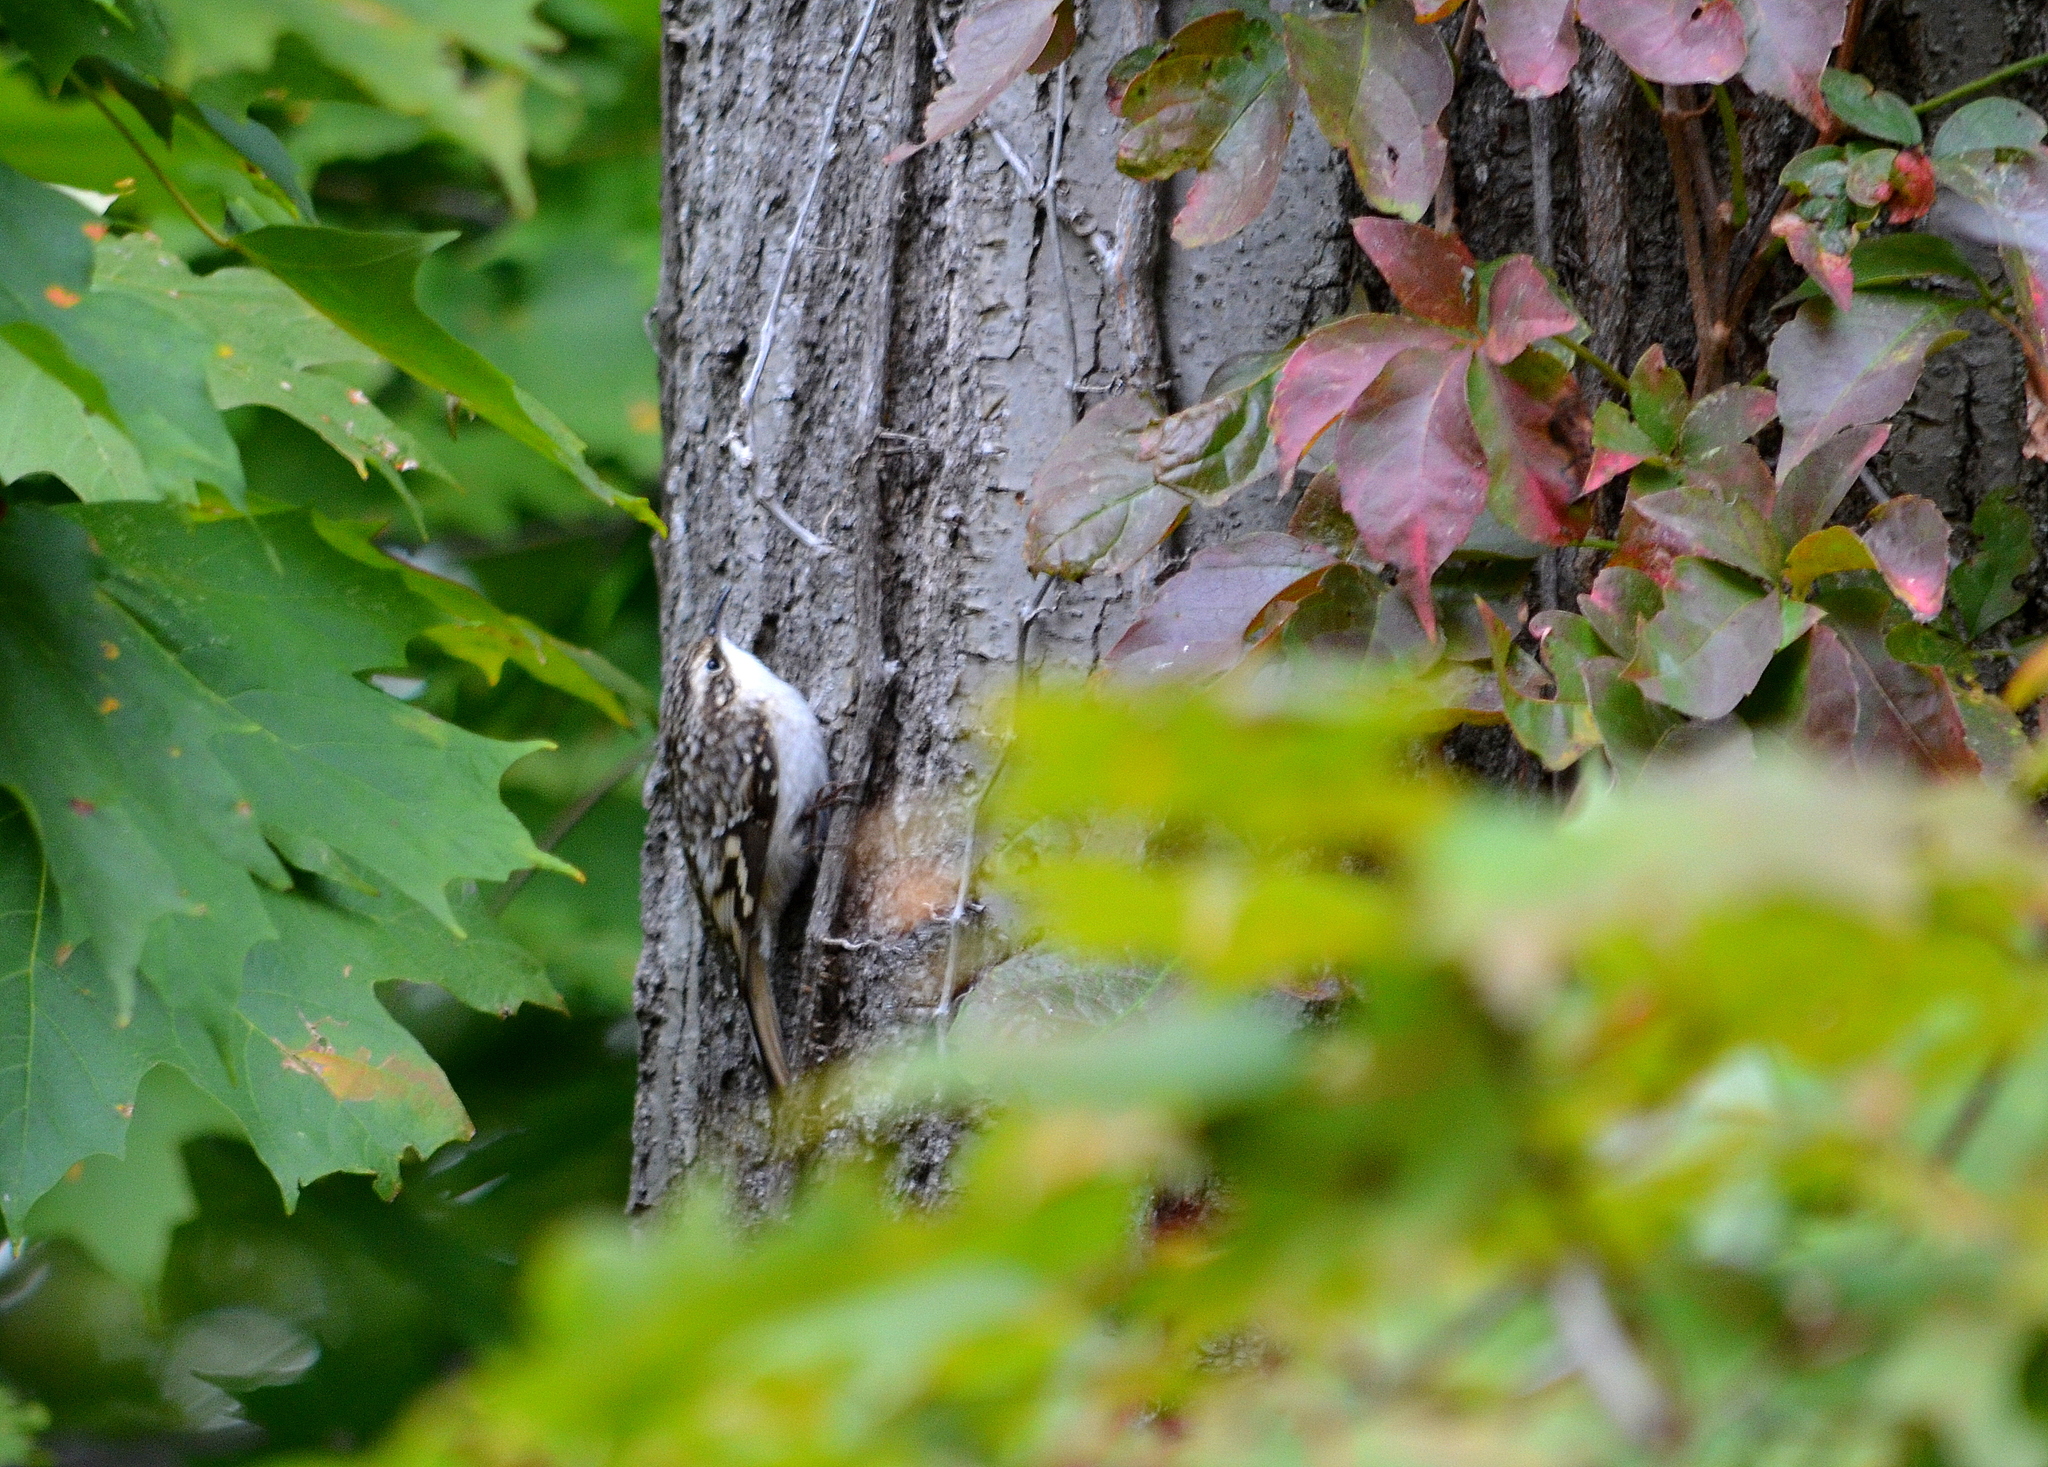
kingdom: Animalia
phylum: Chordata
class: Aves
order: Passeriformes
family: Certhiidae
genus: Certhia
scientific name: Certhia americana
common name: Brown creeper
